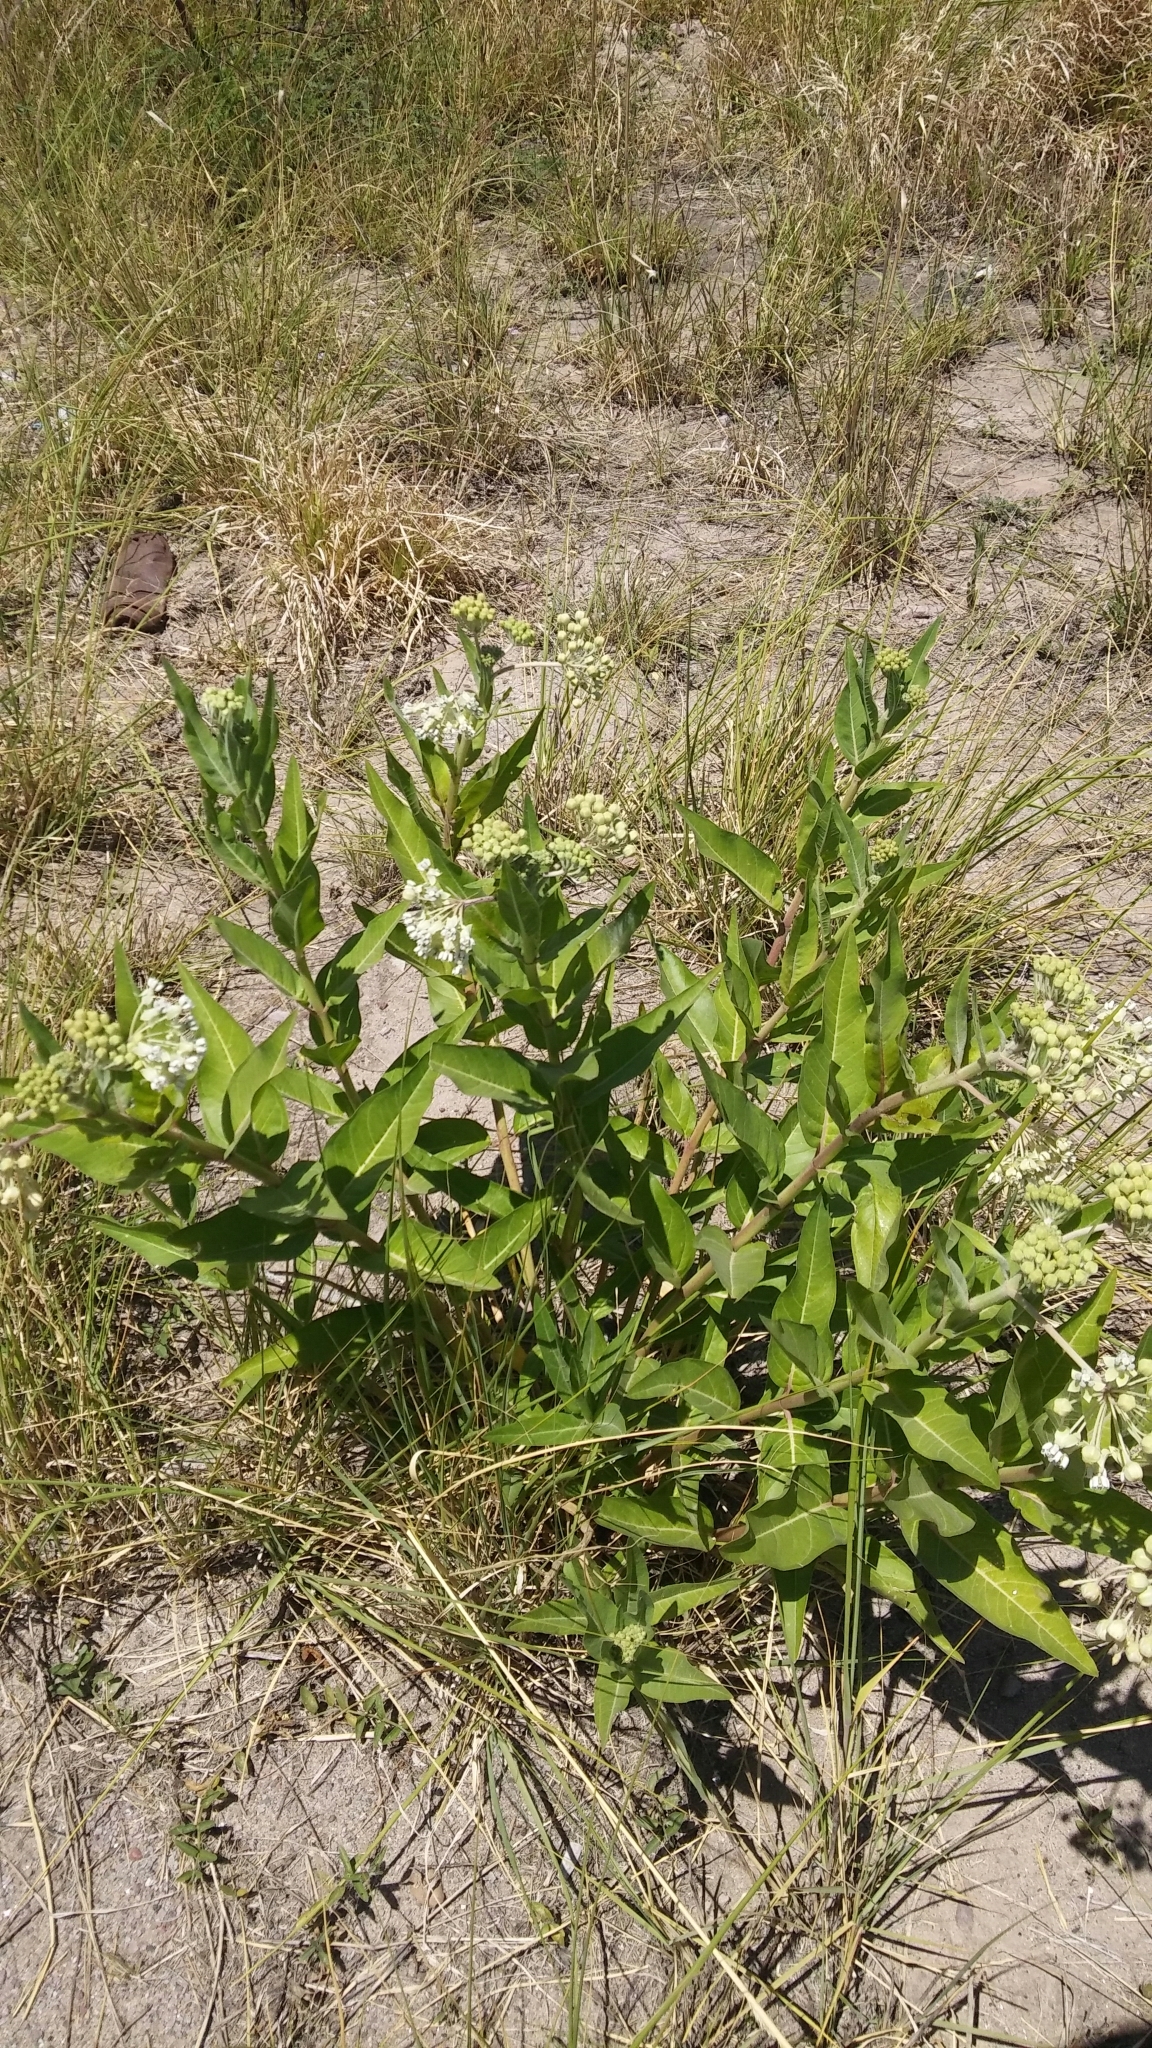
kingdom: Plantae
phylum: Tracheophyta
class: Magnoliopsida
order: Gentianales
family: Apocynaceae
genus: Asclepias
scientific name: Asclepias mellodora
